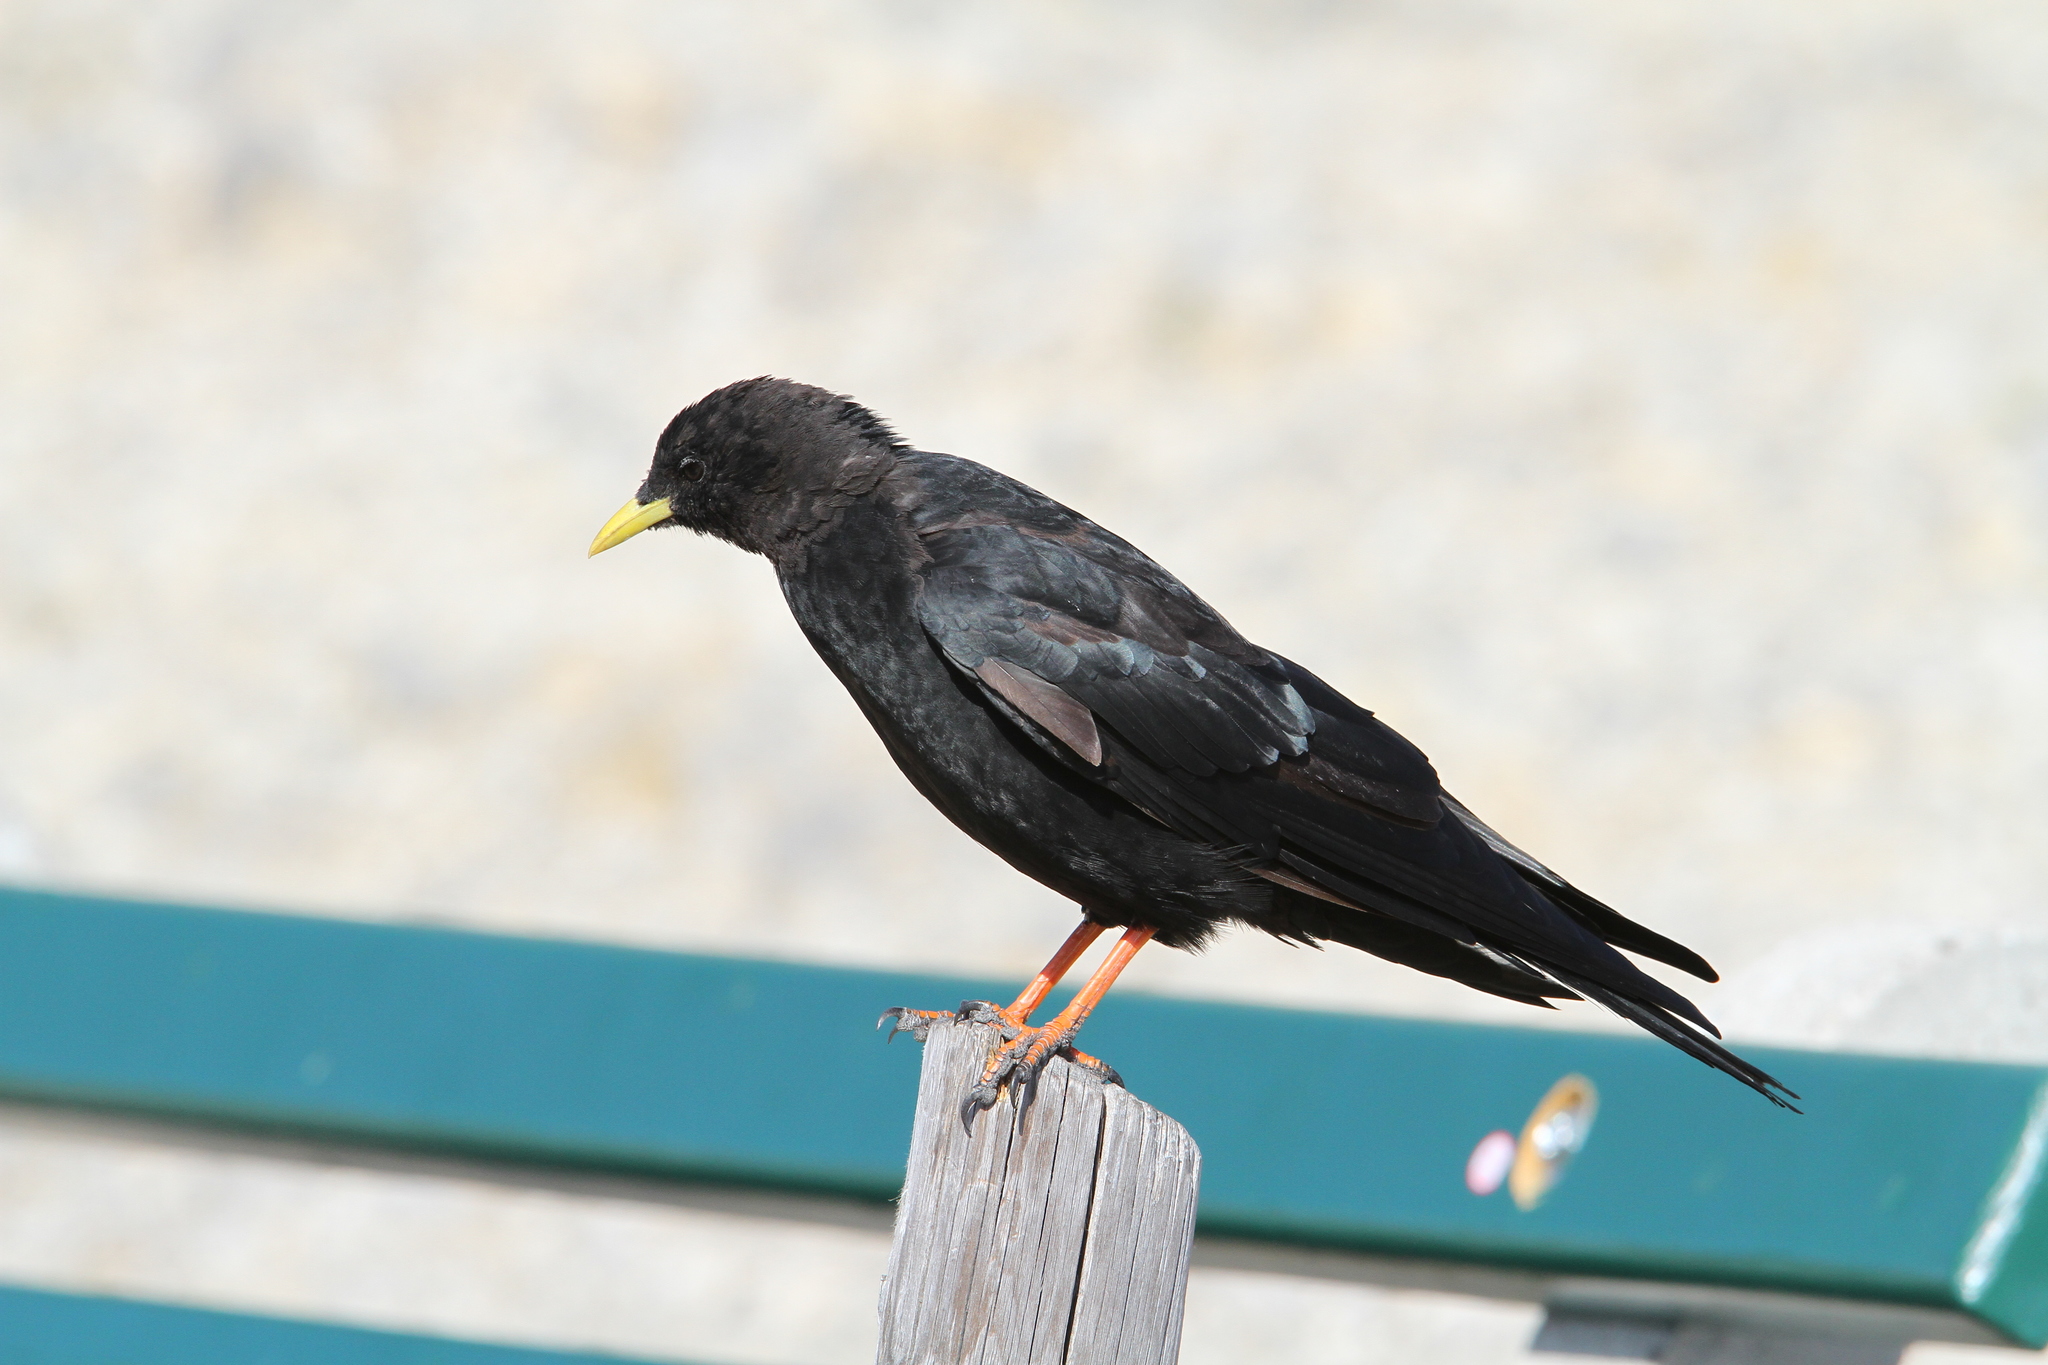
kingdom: Animalia
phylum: Chordata
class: Aves
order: Passeriformes
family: Corvidae
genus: Pyrrhocorax
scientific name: Pyrrhocorax graculus
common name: Alpine chough
